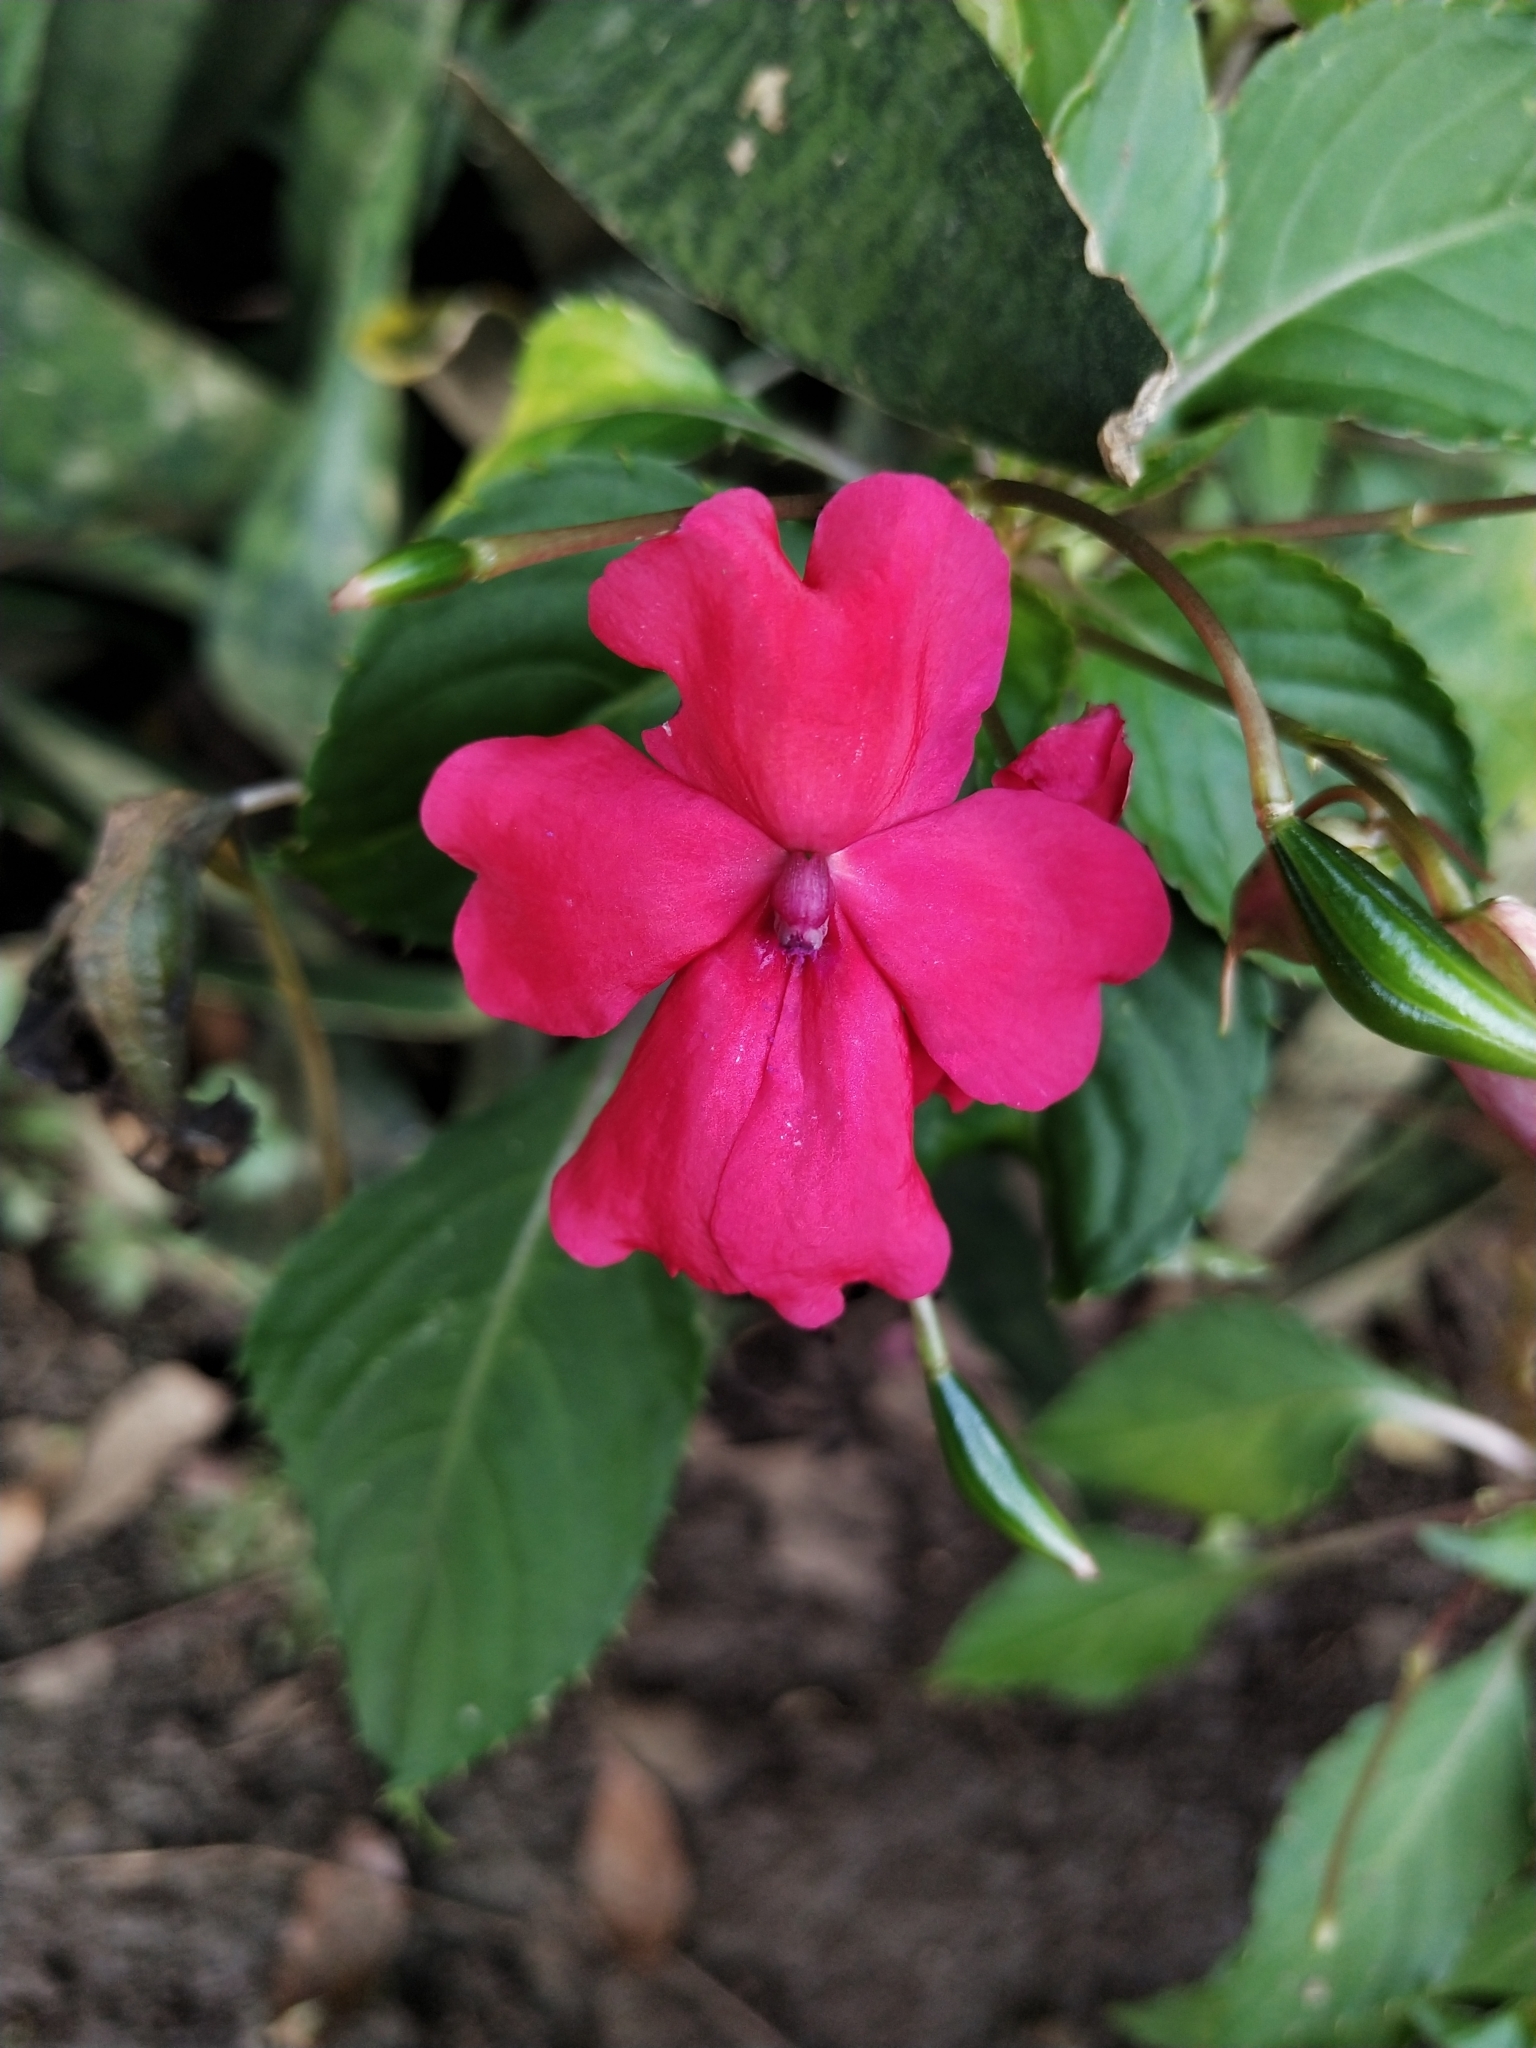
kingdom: Plantae
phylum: Tracheophyta
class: Magnoliopsida
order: Ericales
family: Balsaminaceae
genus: Impatiens
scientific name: Impatiens walleriana
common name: Buzzy lizzy
